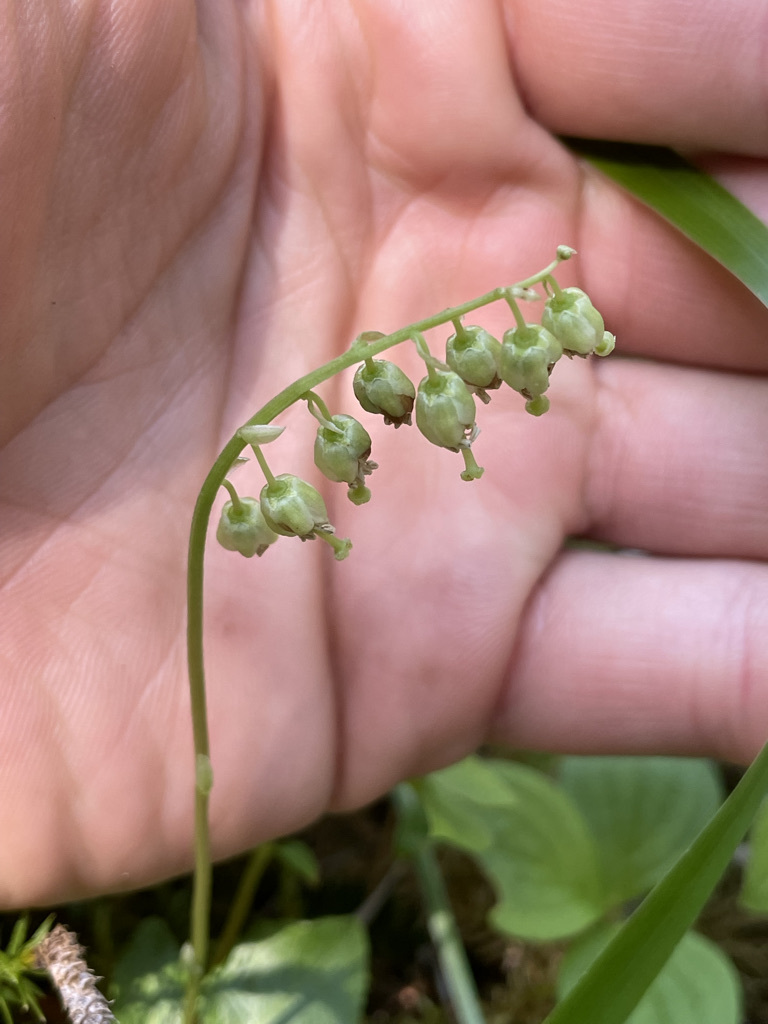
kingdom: Plantae
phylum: Tracheophyta
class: Magnoliopsida
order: Ericales
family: Ericaceae
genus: Orthilia
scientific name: Orthilia secunda
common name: One-sided orthilia
